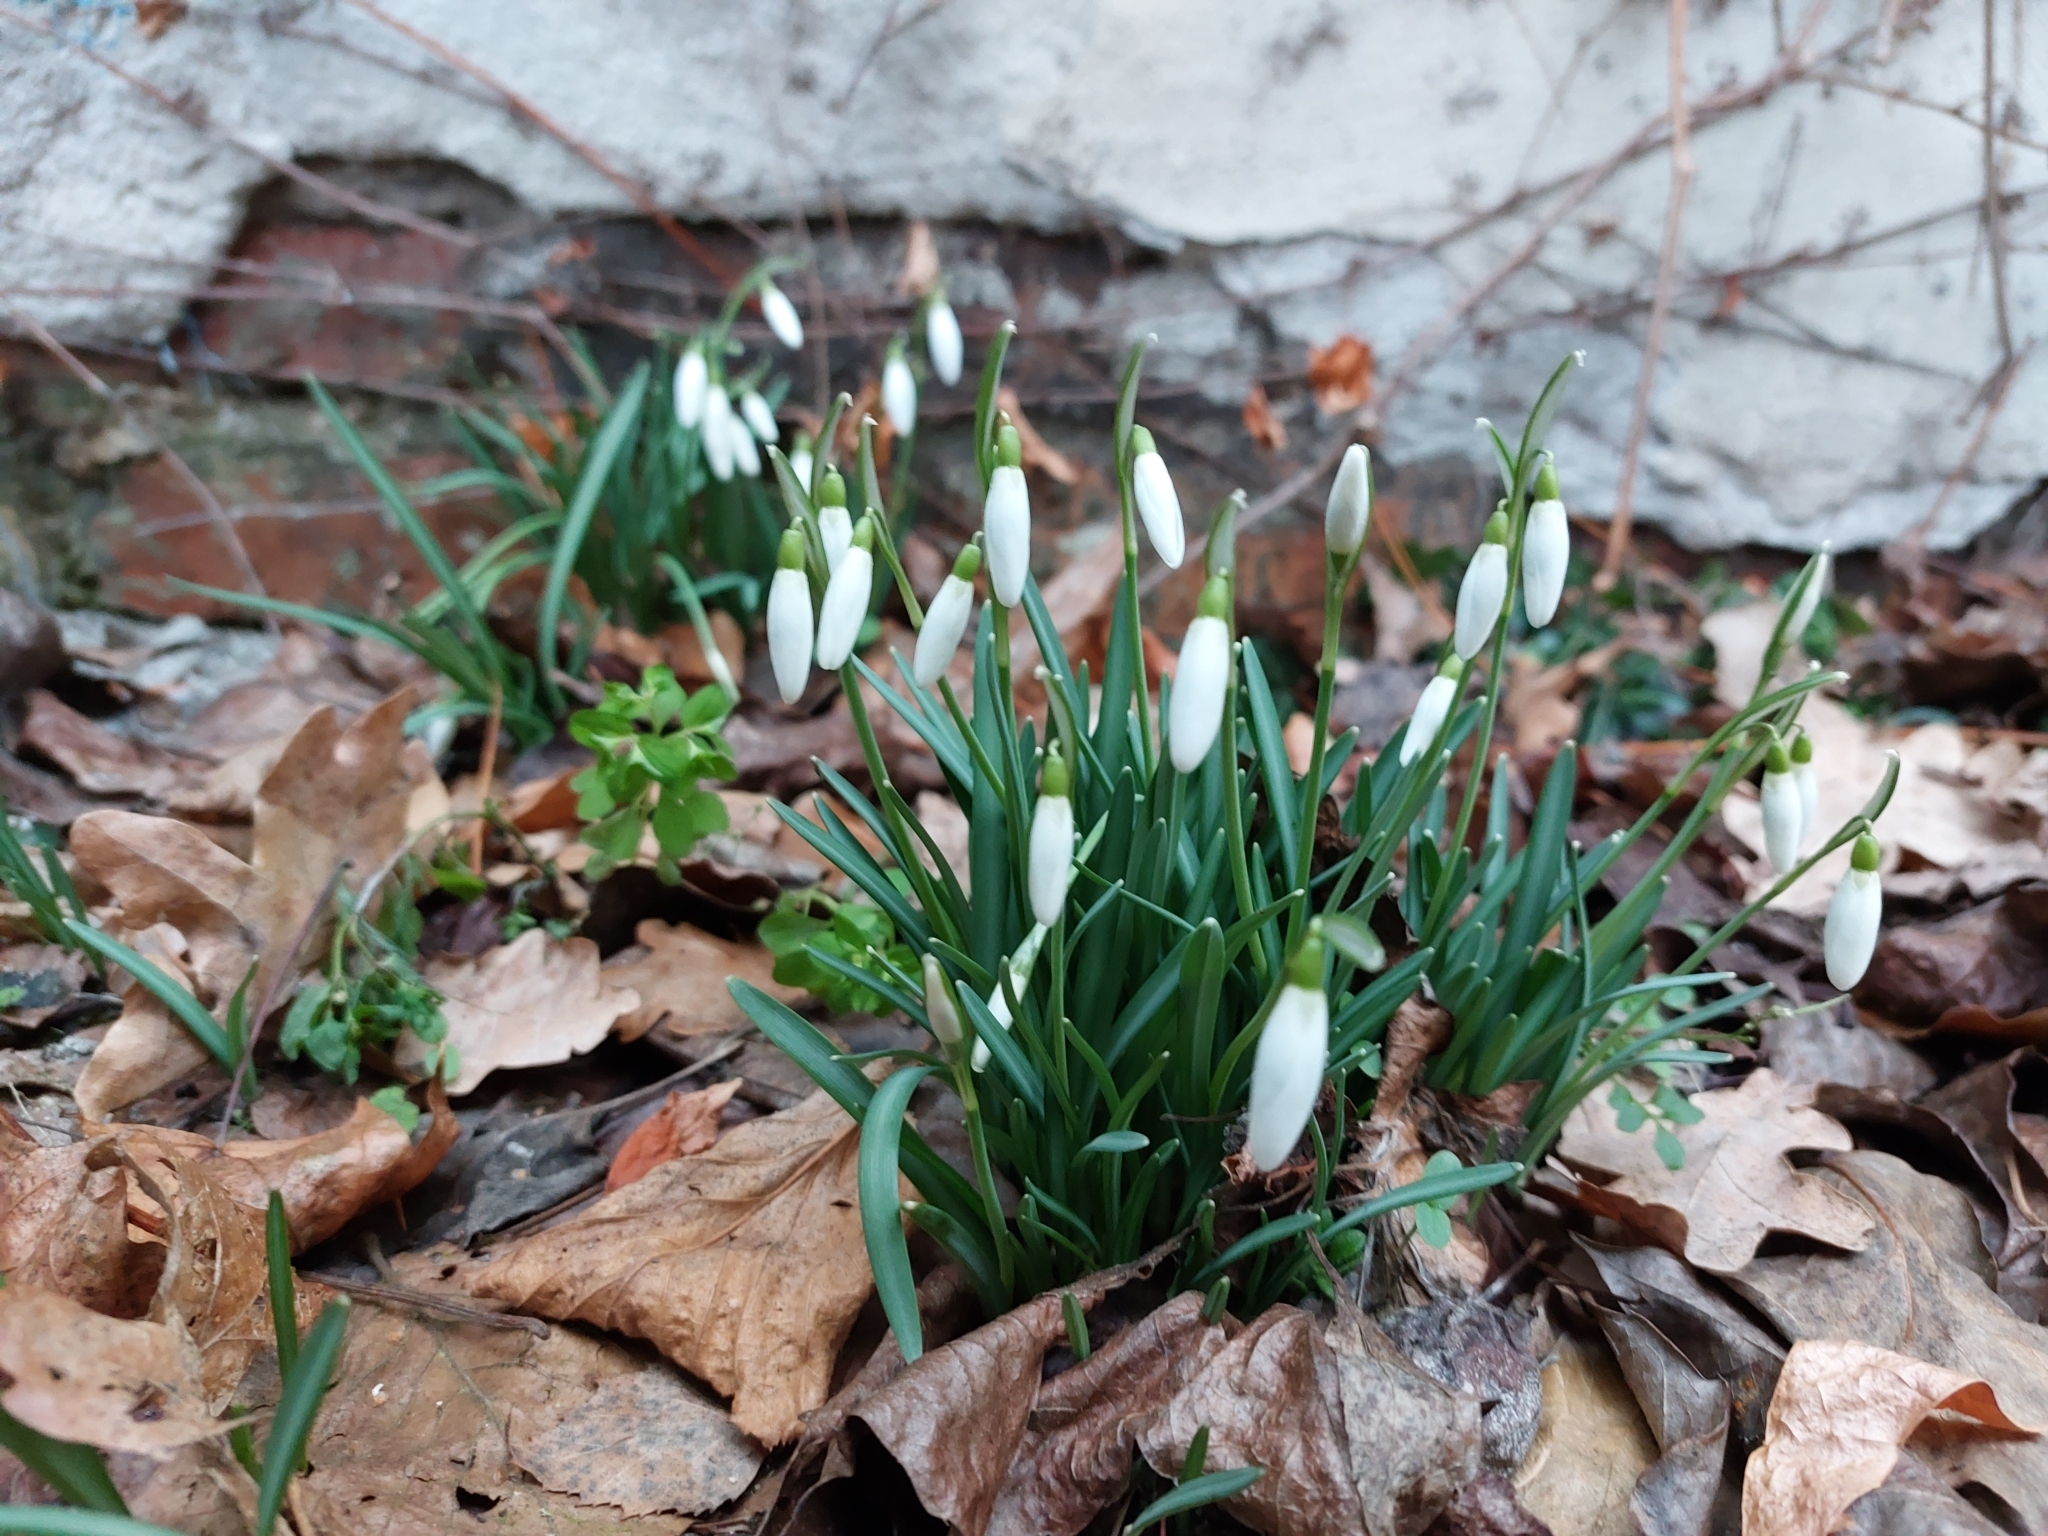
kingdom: Plantae
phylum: Tracheophyta
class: Liliopsida
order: Asparagales
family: Amaryllidaceae
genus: Galanthus
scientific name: Galanthus nivalis
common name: Snowdrop
